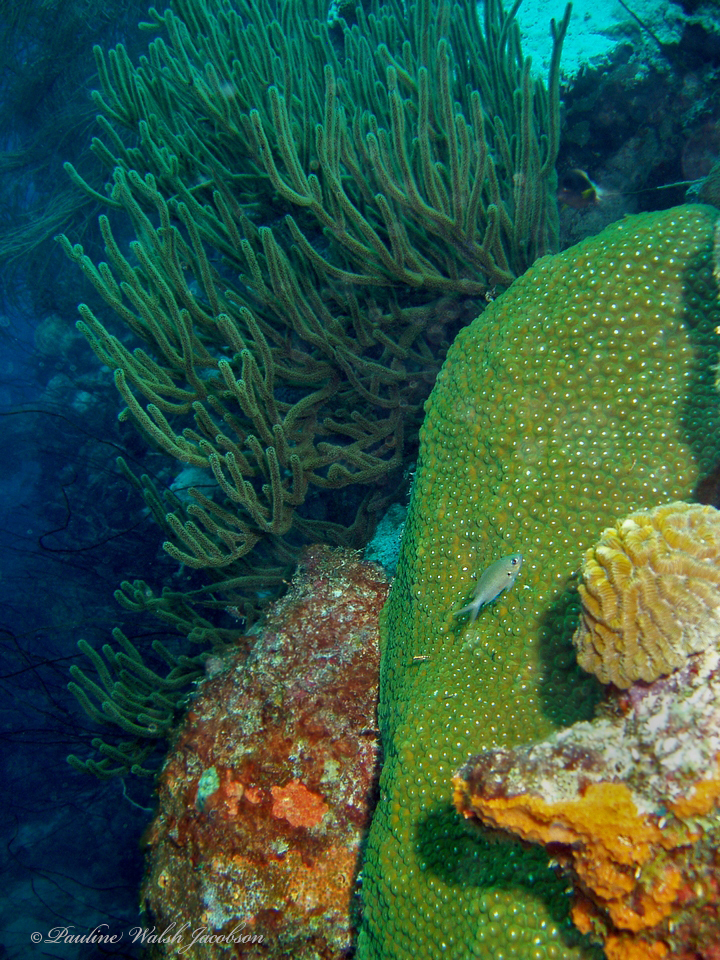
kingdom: Animalia
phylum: Cnidaria
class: Anthozoa
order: Scleractinia
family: Montastraeidae
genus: Montastraea
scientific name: Montastraea cavernosa
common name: Great star coral
